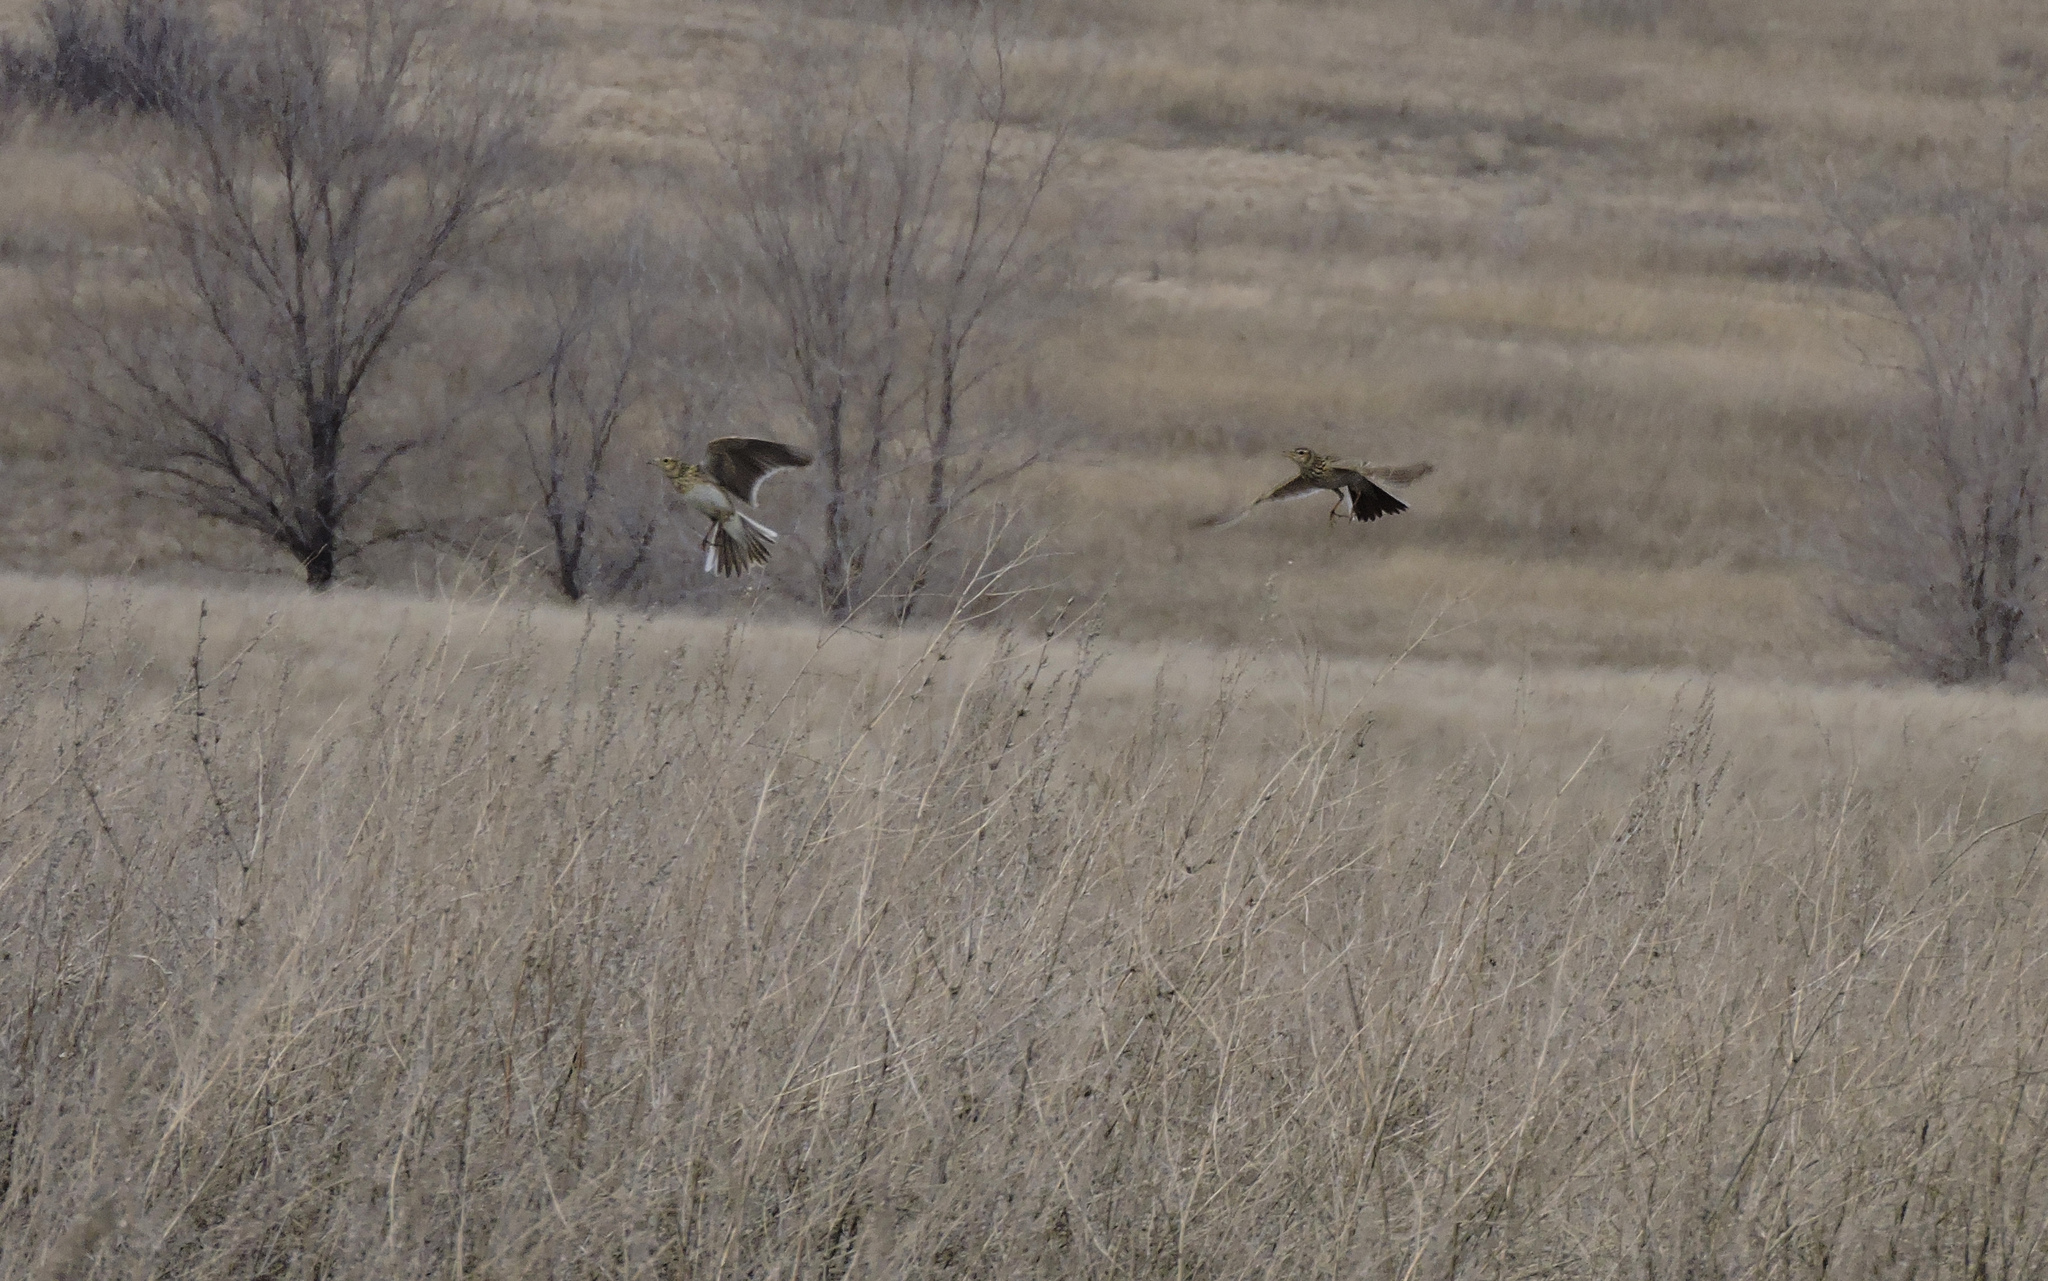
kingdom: Animalia
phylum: Chordata
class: Aves
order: Passeriformes
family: Alaudidae
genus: Alauda
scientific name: Alauda arvensis
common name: Eurasian skylark
